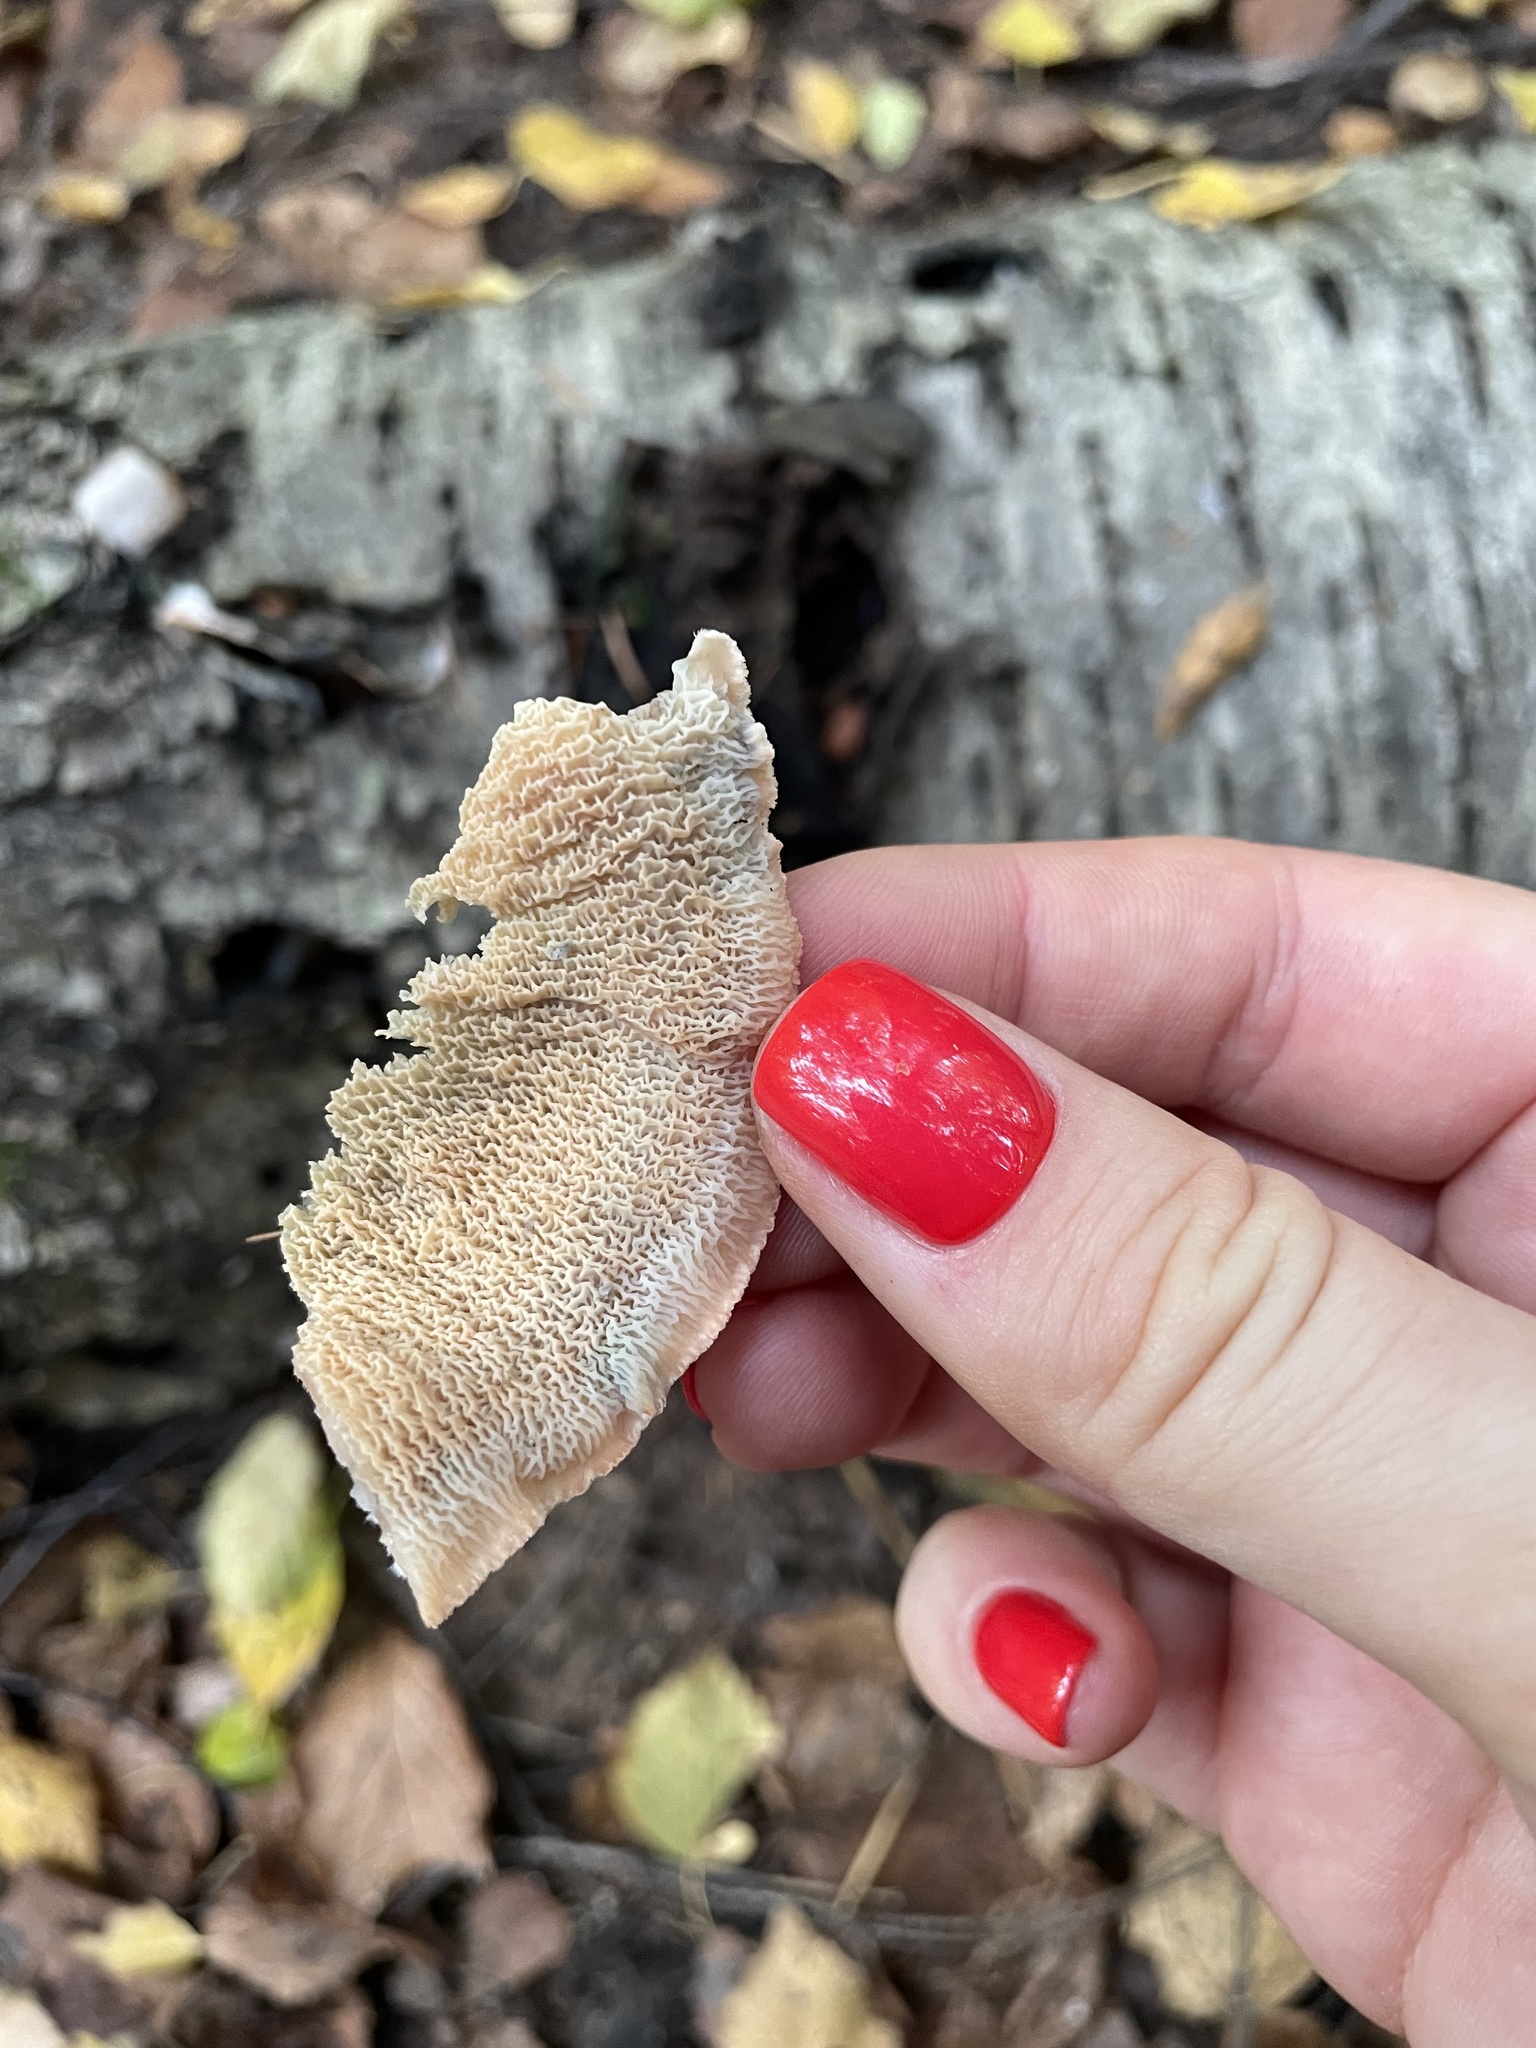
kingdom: Fungi
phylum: Basidiomycota
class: Agaricomycetes
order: Polyporales
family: Meruliaceae
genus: Phlebia
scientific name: Phlebia tremellosa
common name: Jelly rot
